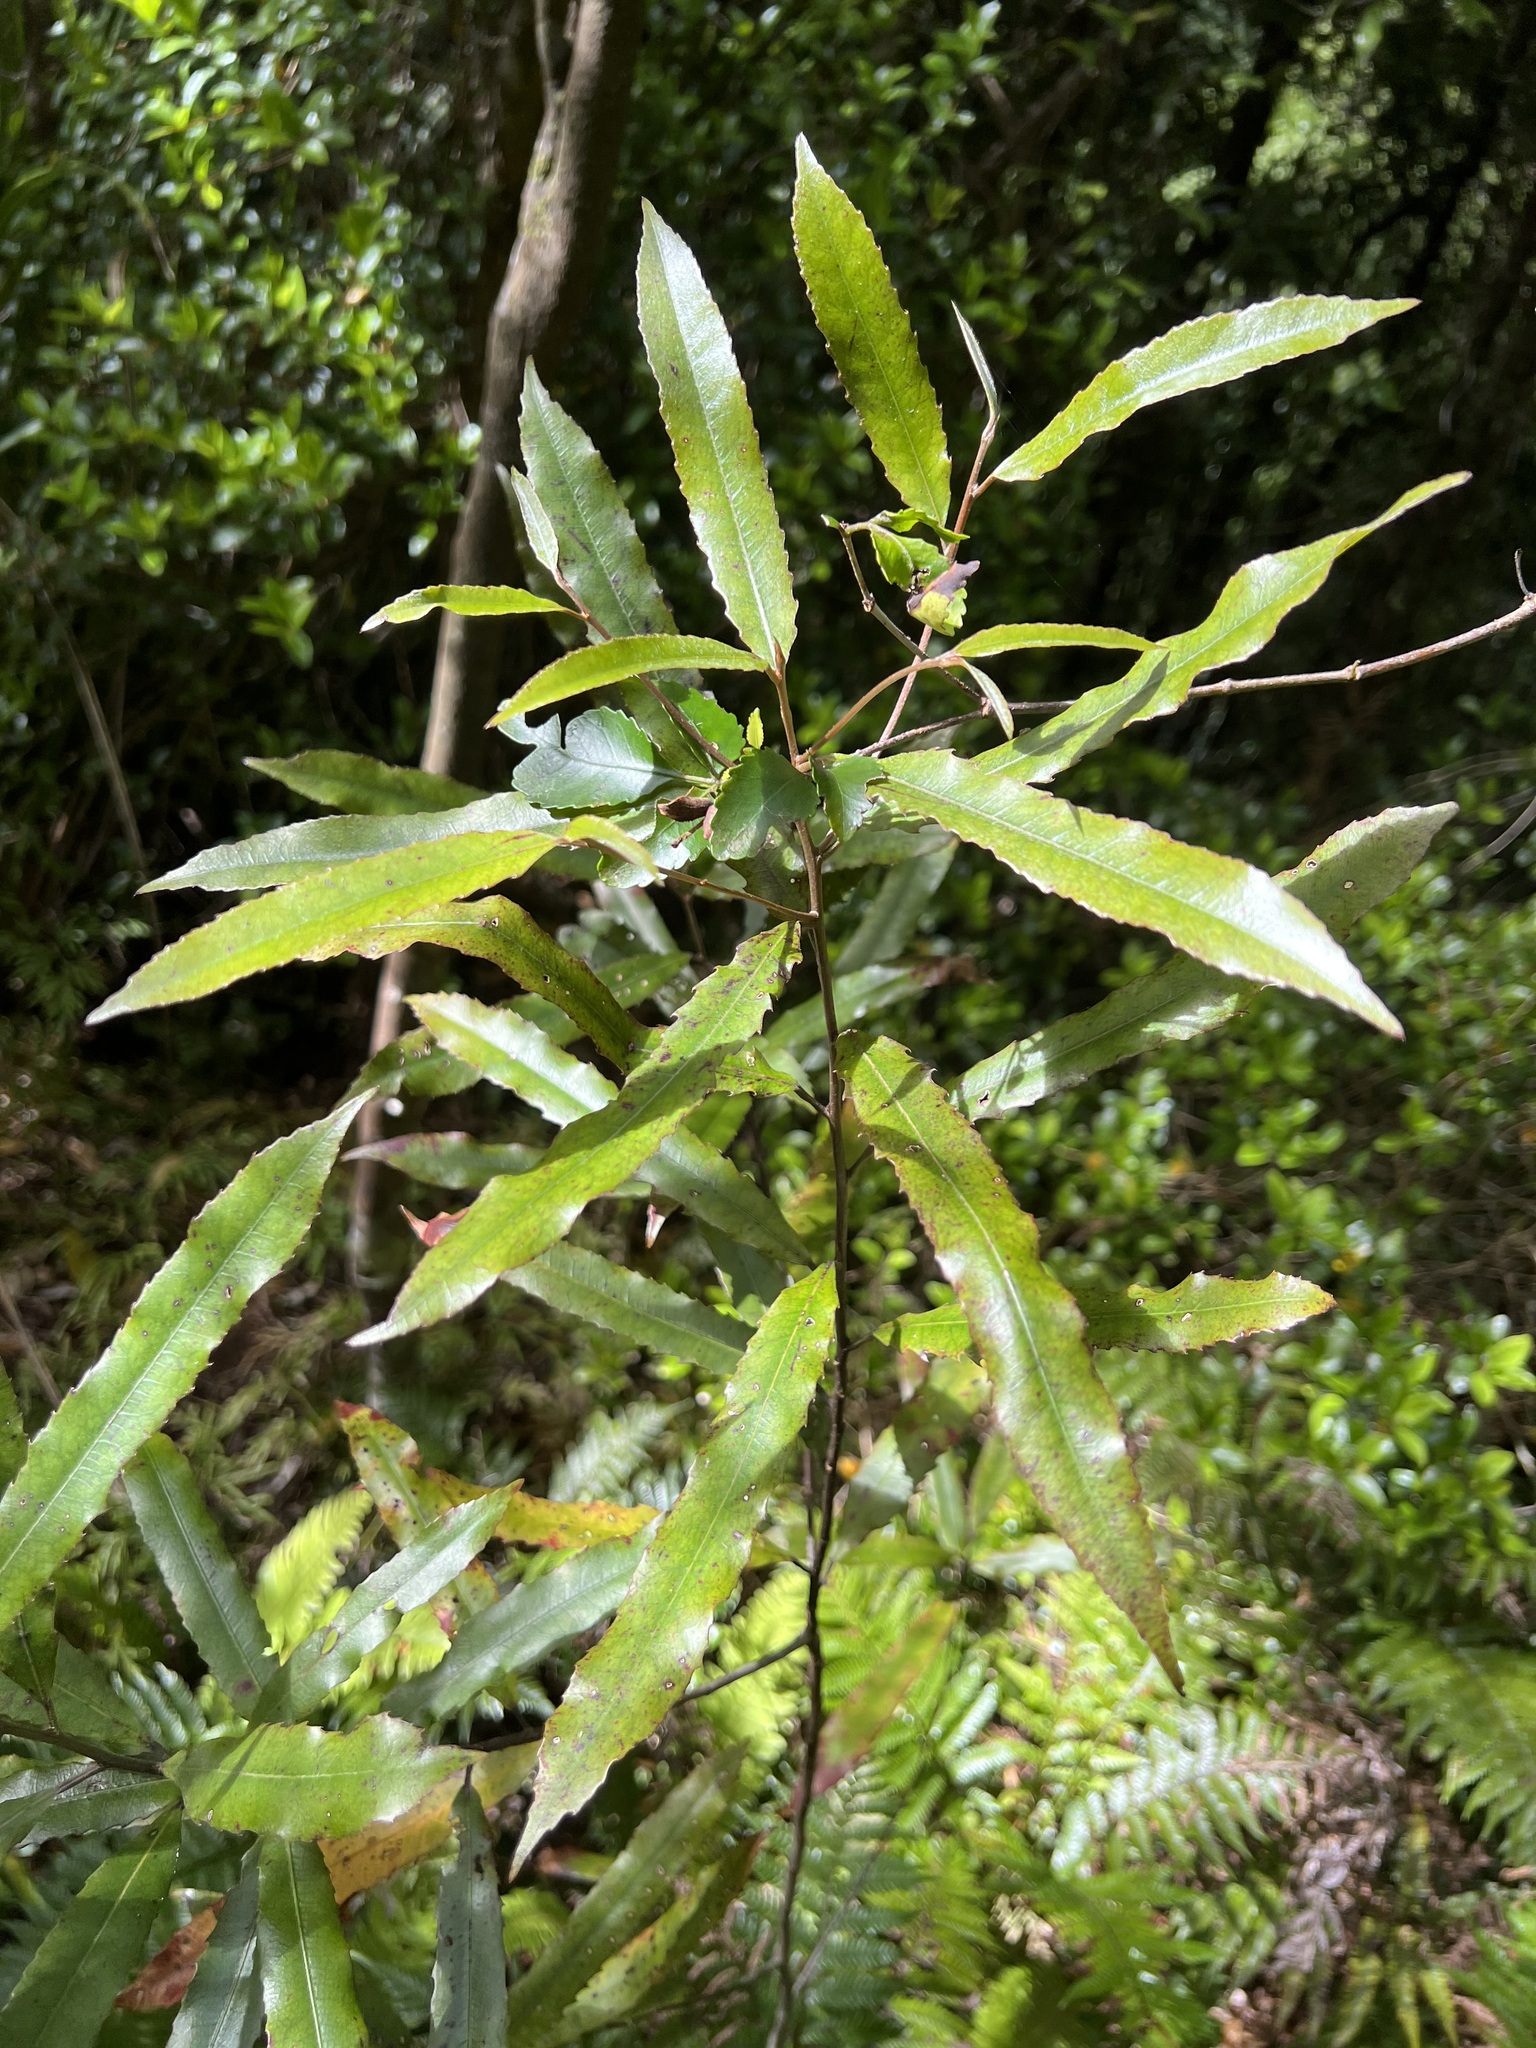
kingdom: Plantae
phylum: Tracheophyta
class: Magnoliopsida
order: Oxalidales
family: Elaeocarpaceae
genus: Elaeocarpus
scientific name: Elaeocarpus dentatus
